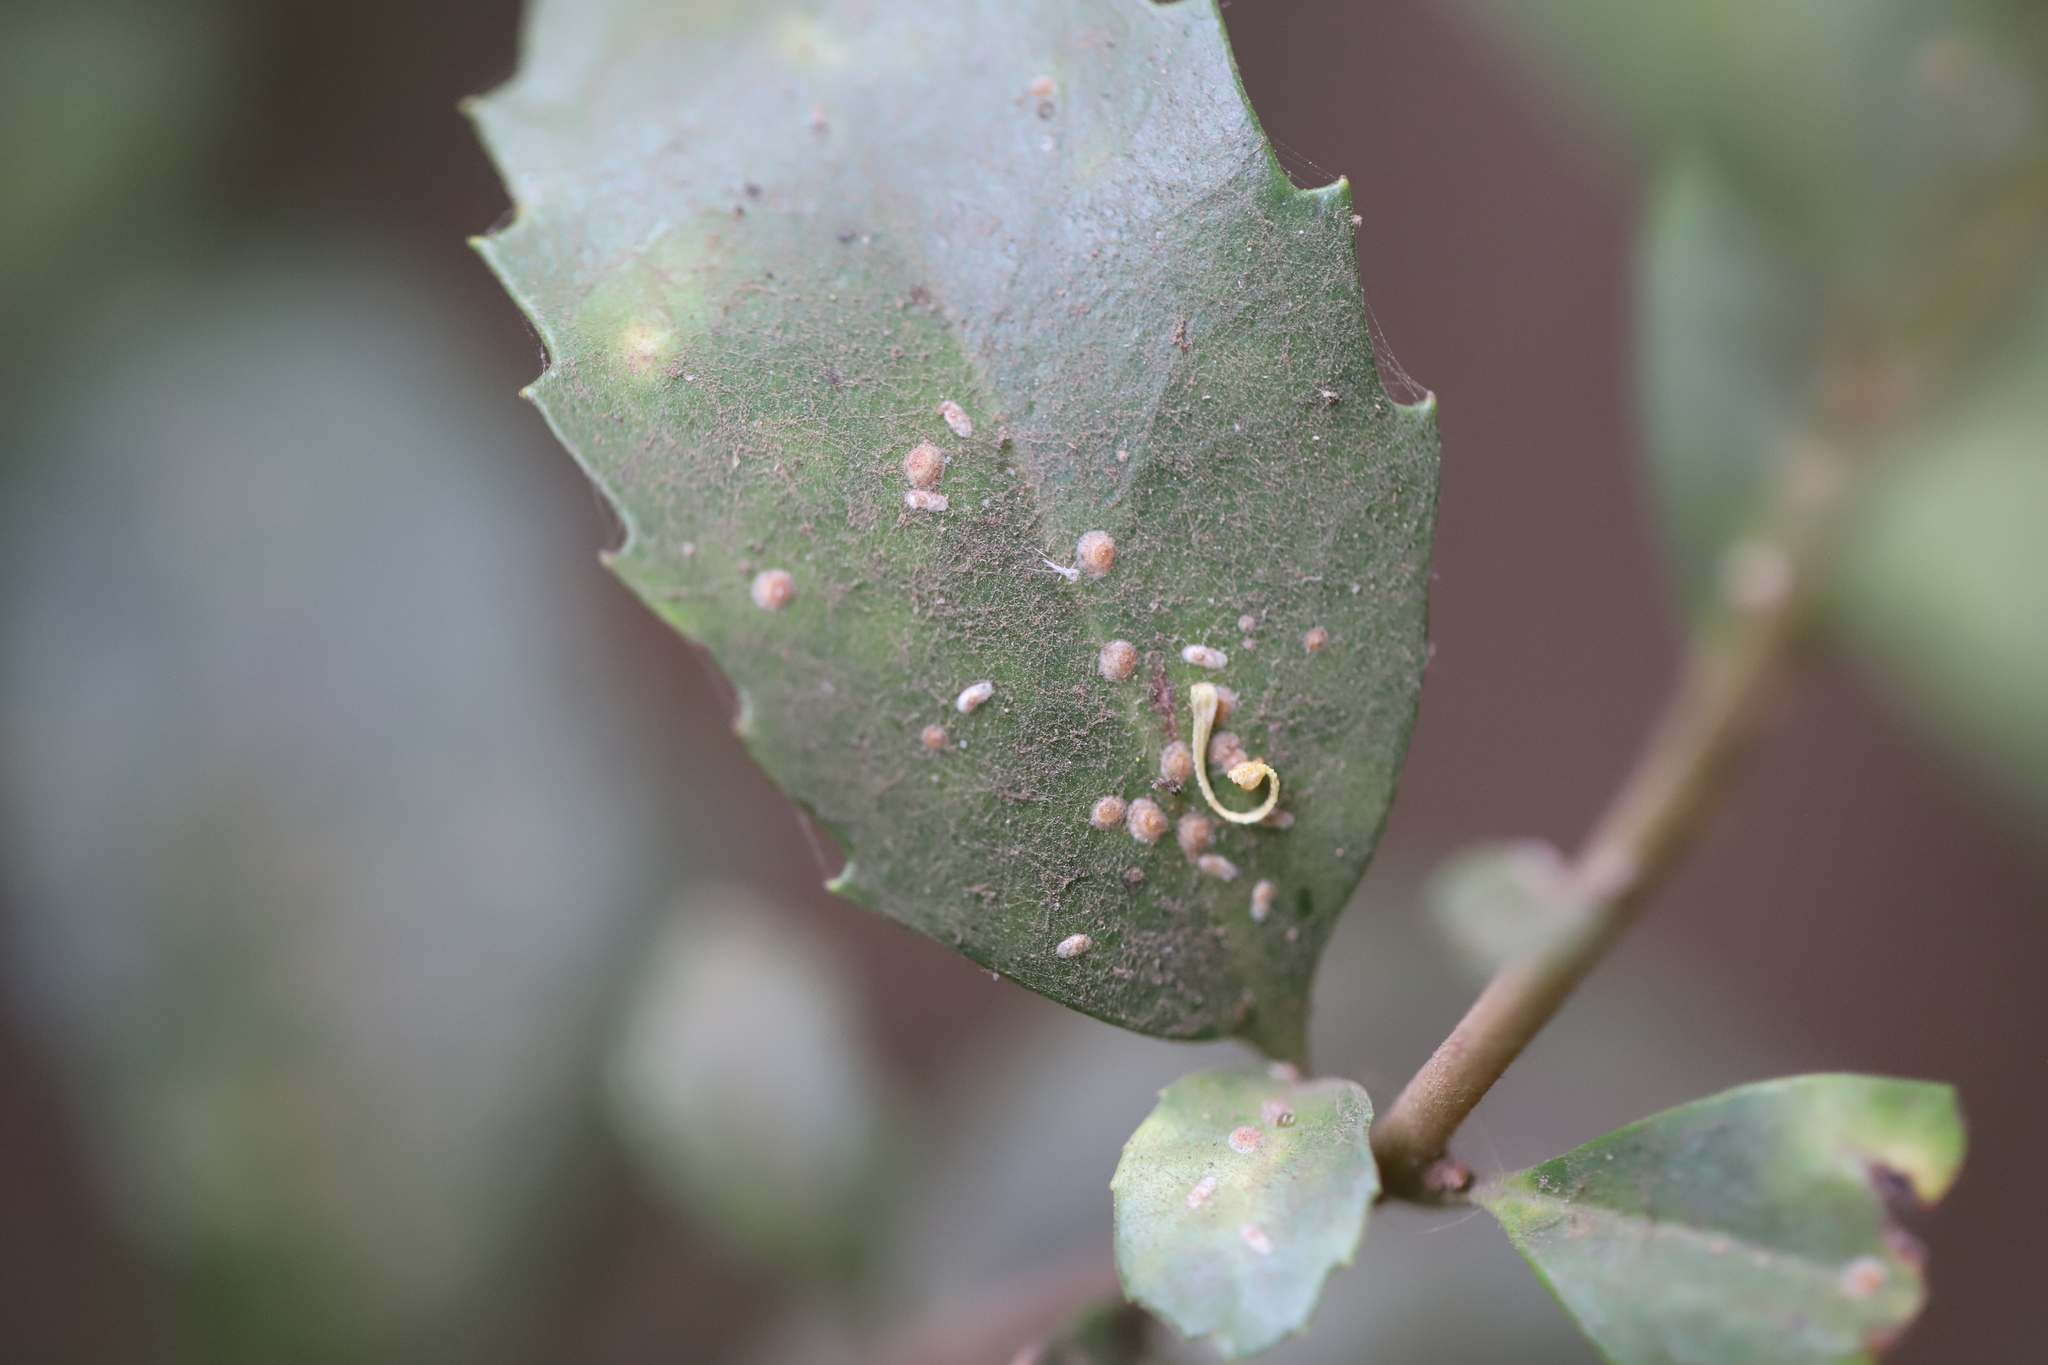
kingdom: Plantae
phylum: Tracheophyta
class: Magnoliopsida
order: Proteales
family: Proteaceae
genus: Lomatia
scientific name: Lomatia dentata
